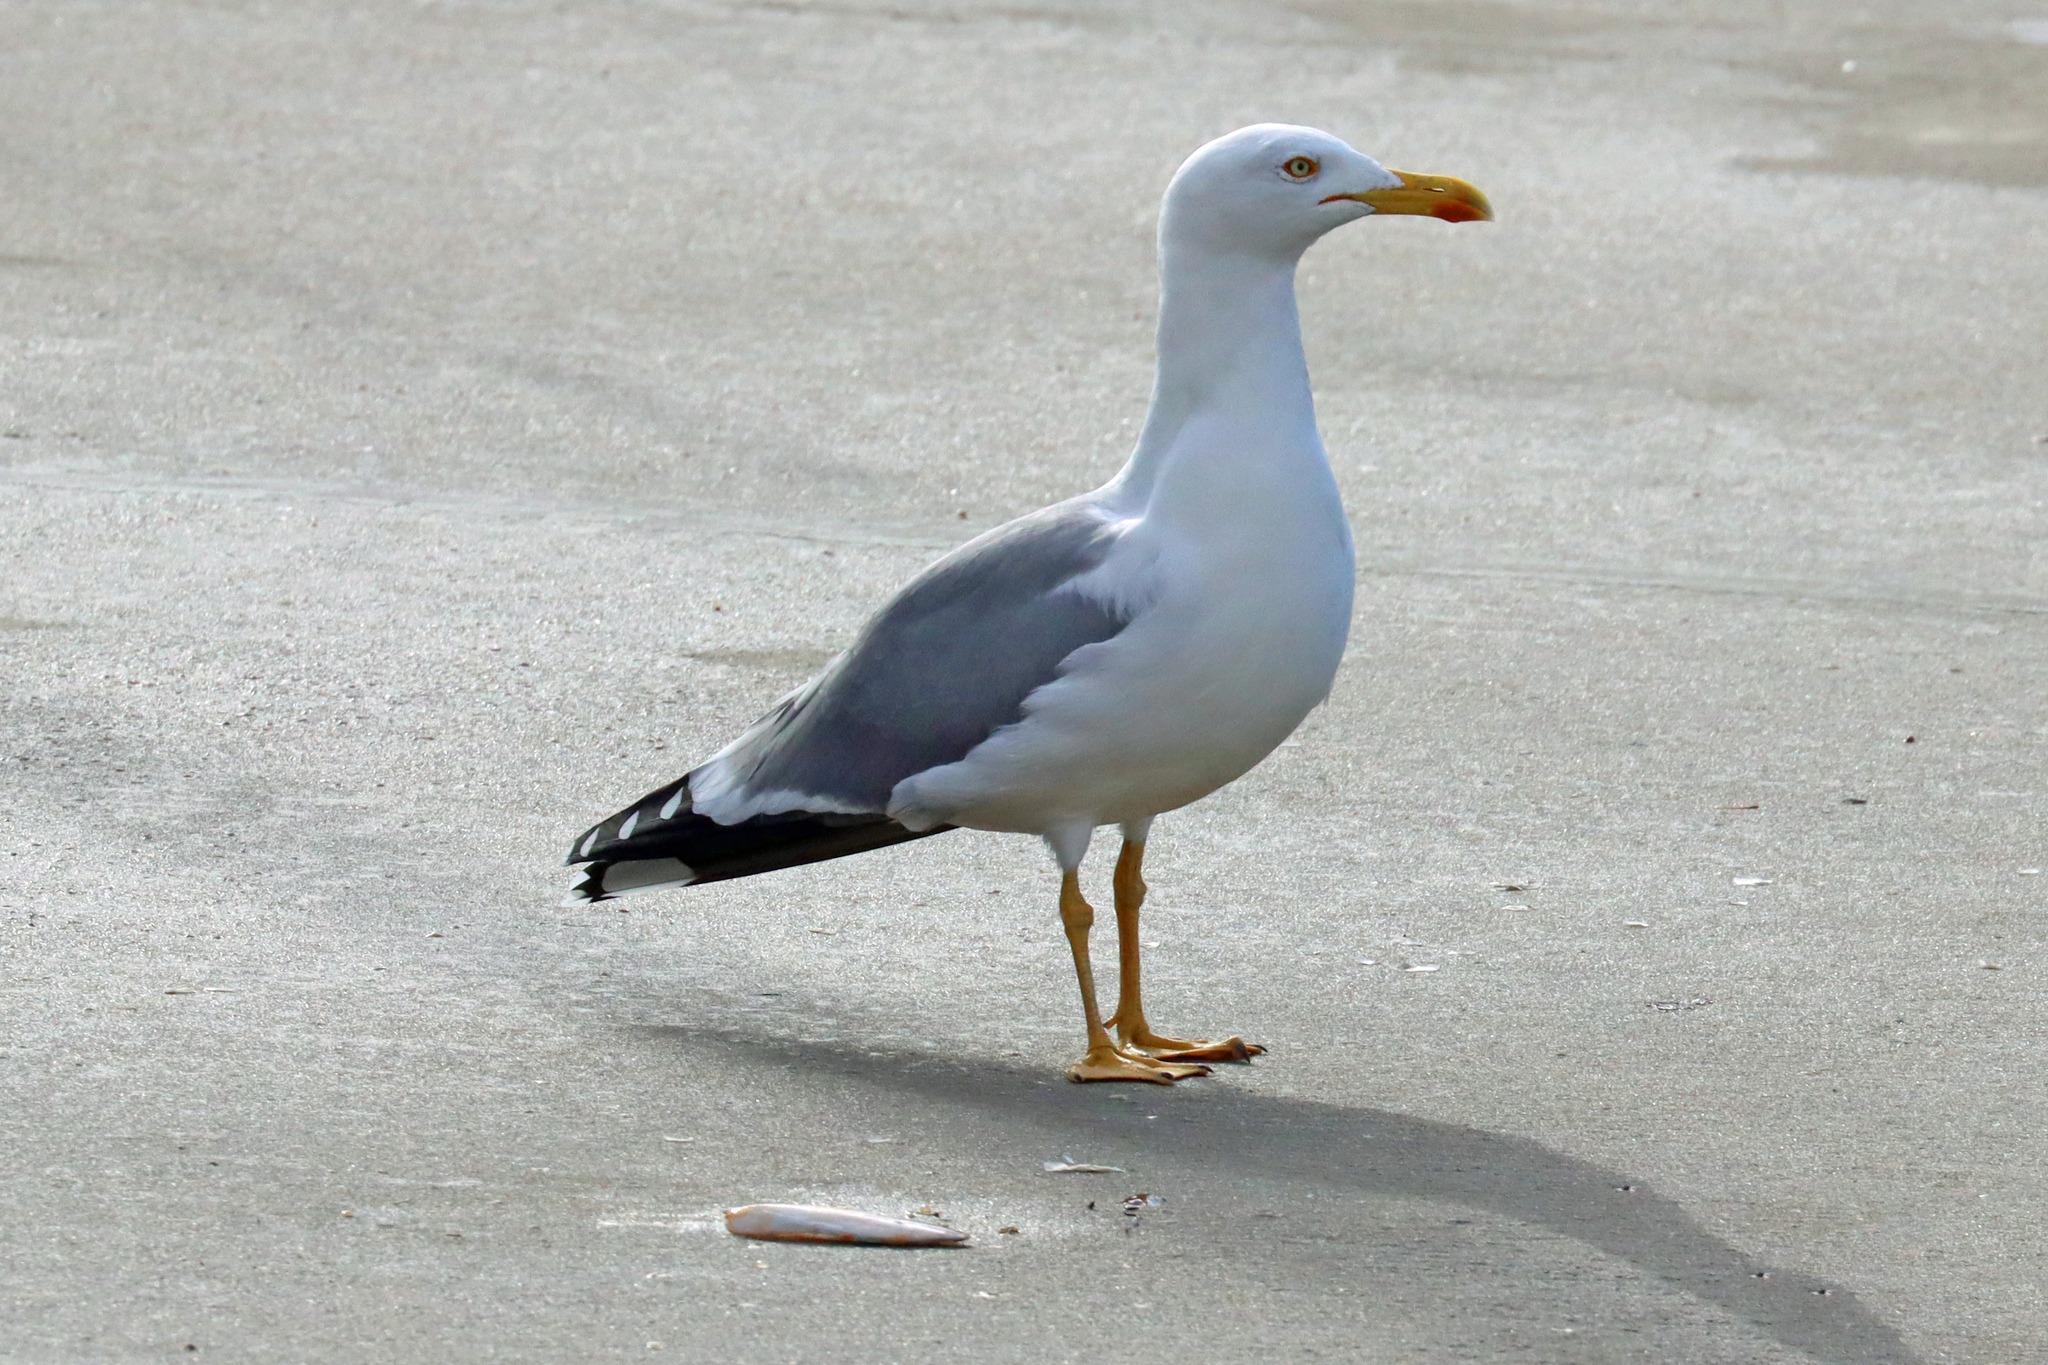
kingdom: Animalia
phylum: Chordata
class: Aves
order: Charadriiformes
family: Laridae
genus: Larus
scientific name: Larus michahellis
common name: Yellow-legged gull
